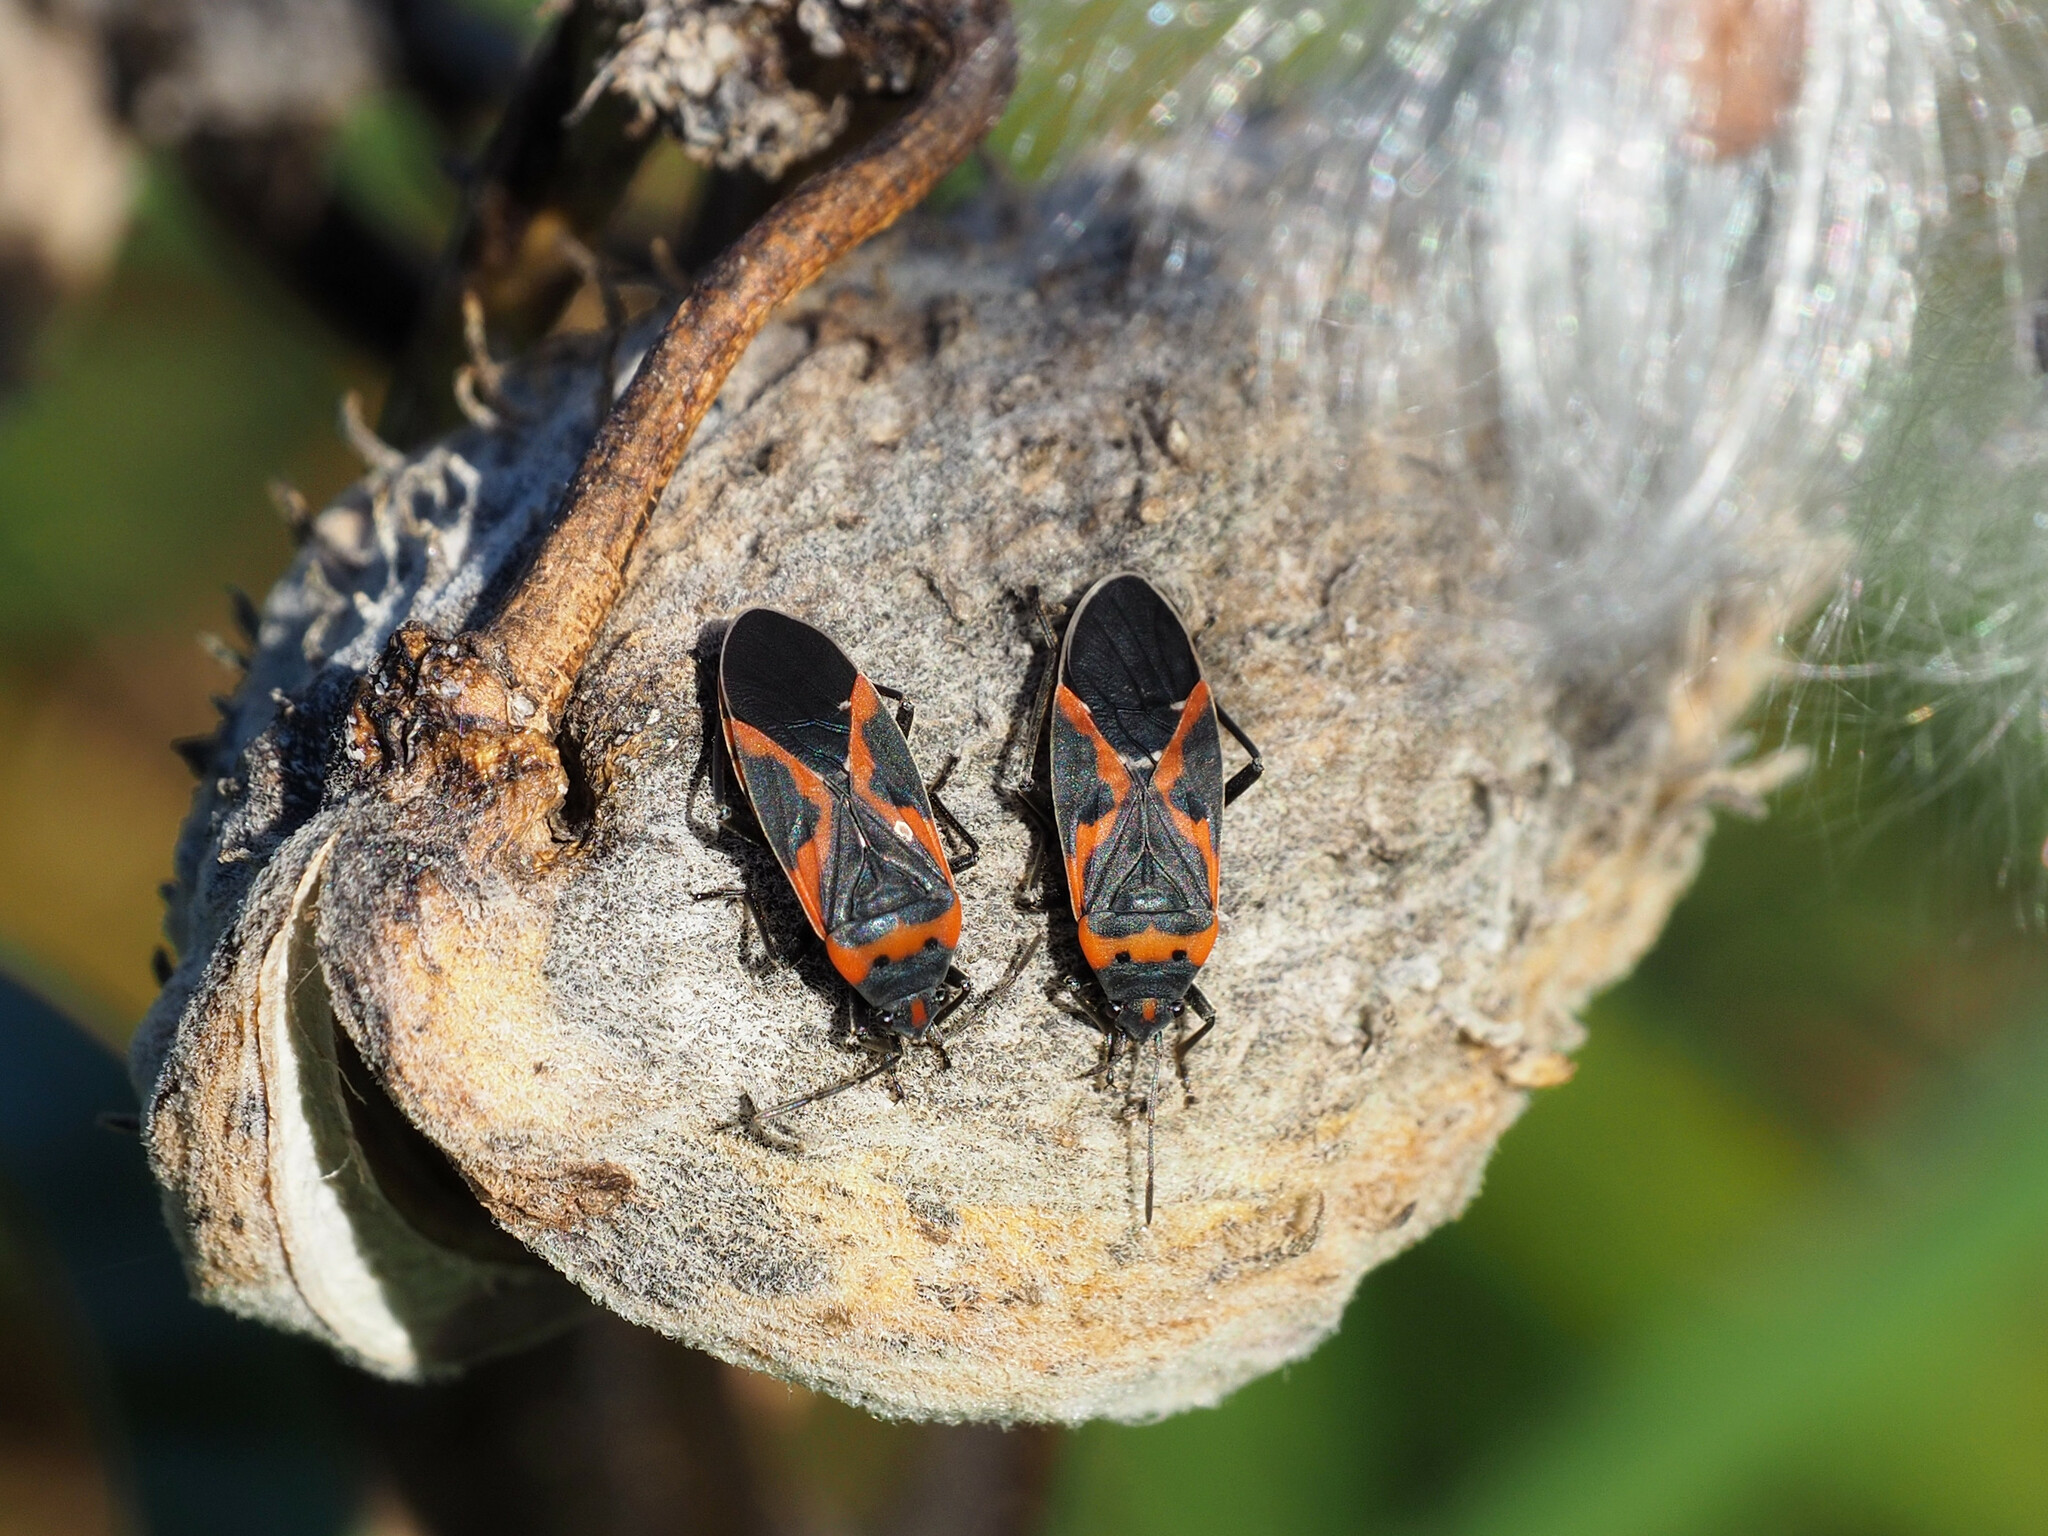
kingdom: Animalia
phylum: Arthropoda
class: Insecta
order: Hemiptera
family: Lygaeidae
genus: Lygaeus
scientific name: Lygaeus kalmii
